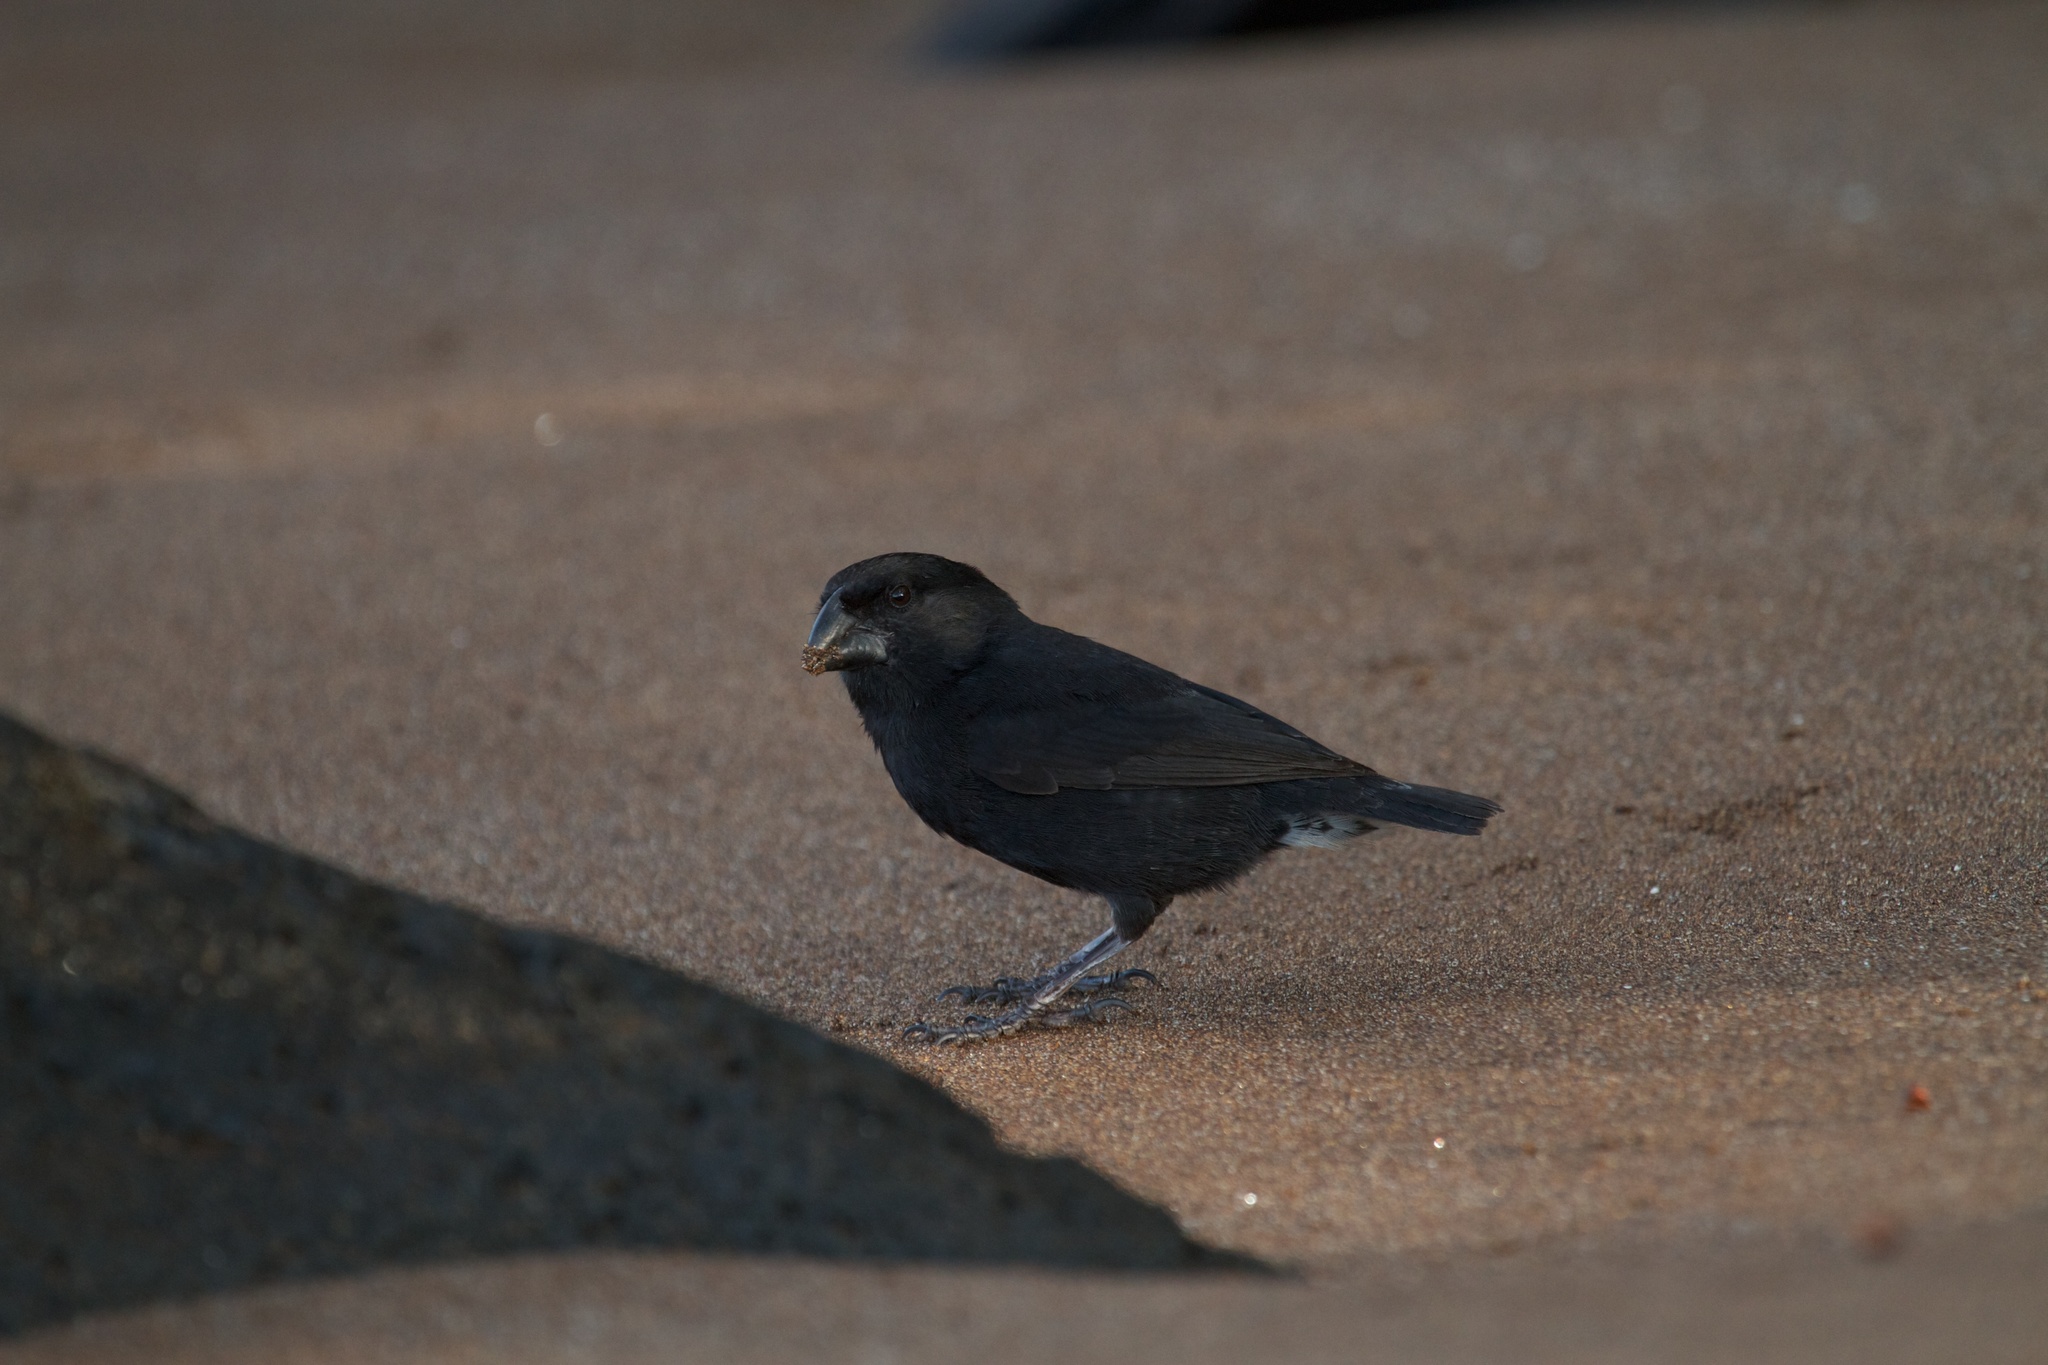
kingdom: Animalia
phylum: Chordata
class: Aves
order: Passeriformes
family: Thraupidae
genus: Geospiza
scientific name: Geospiza fortis
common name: Medium ground finch
